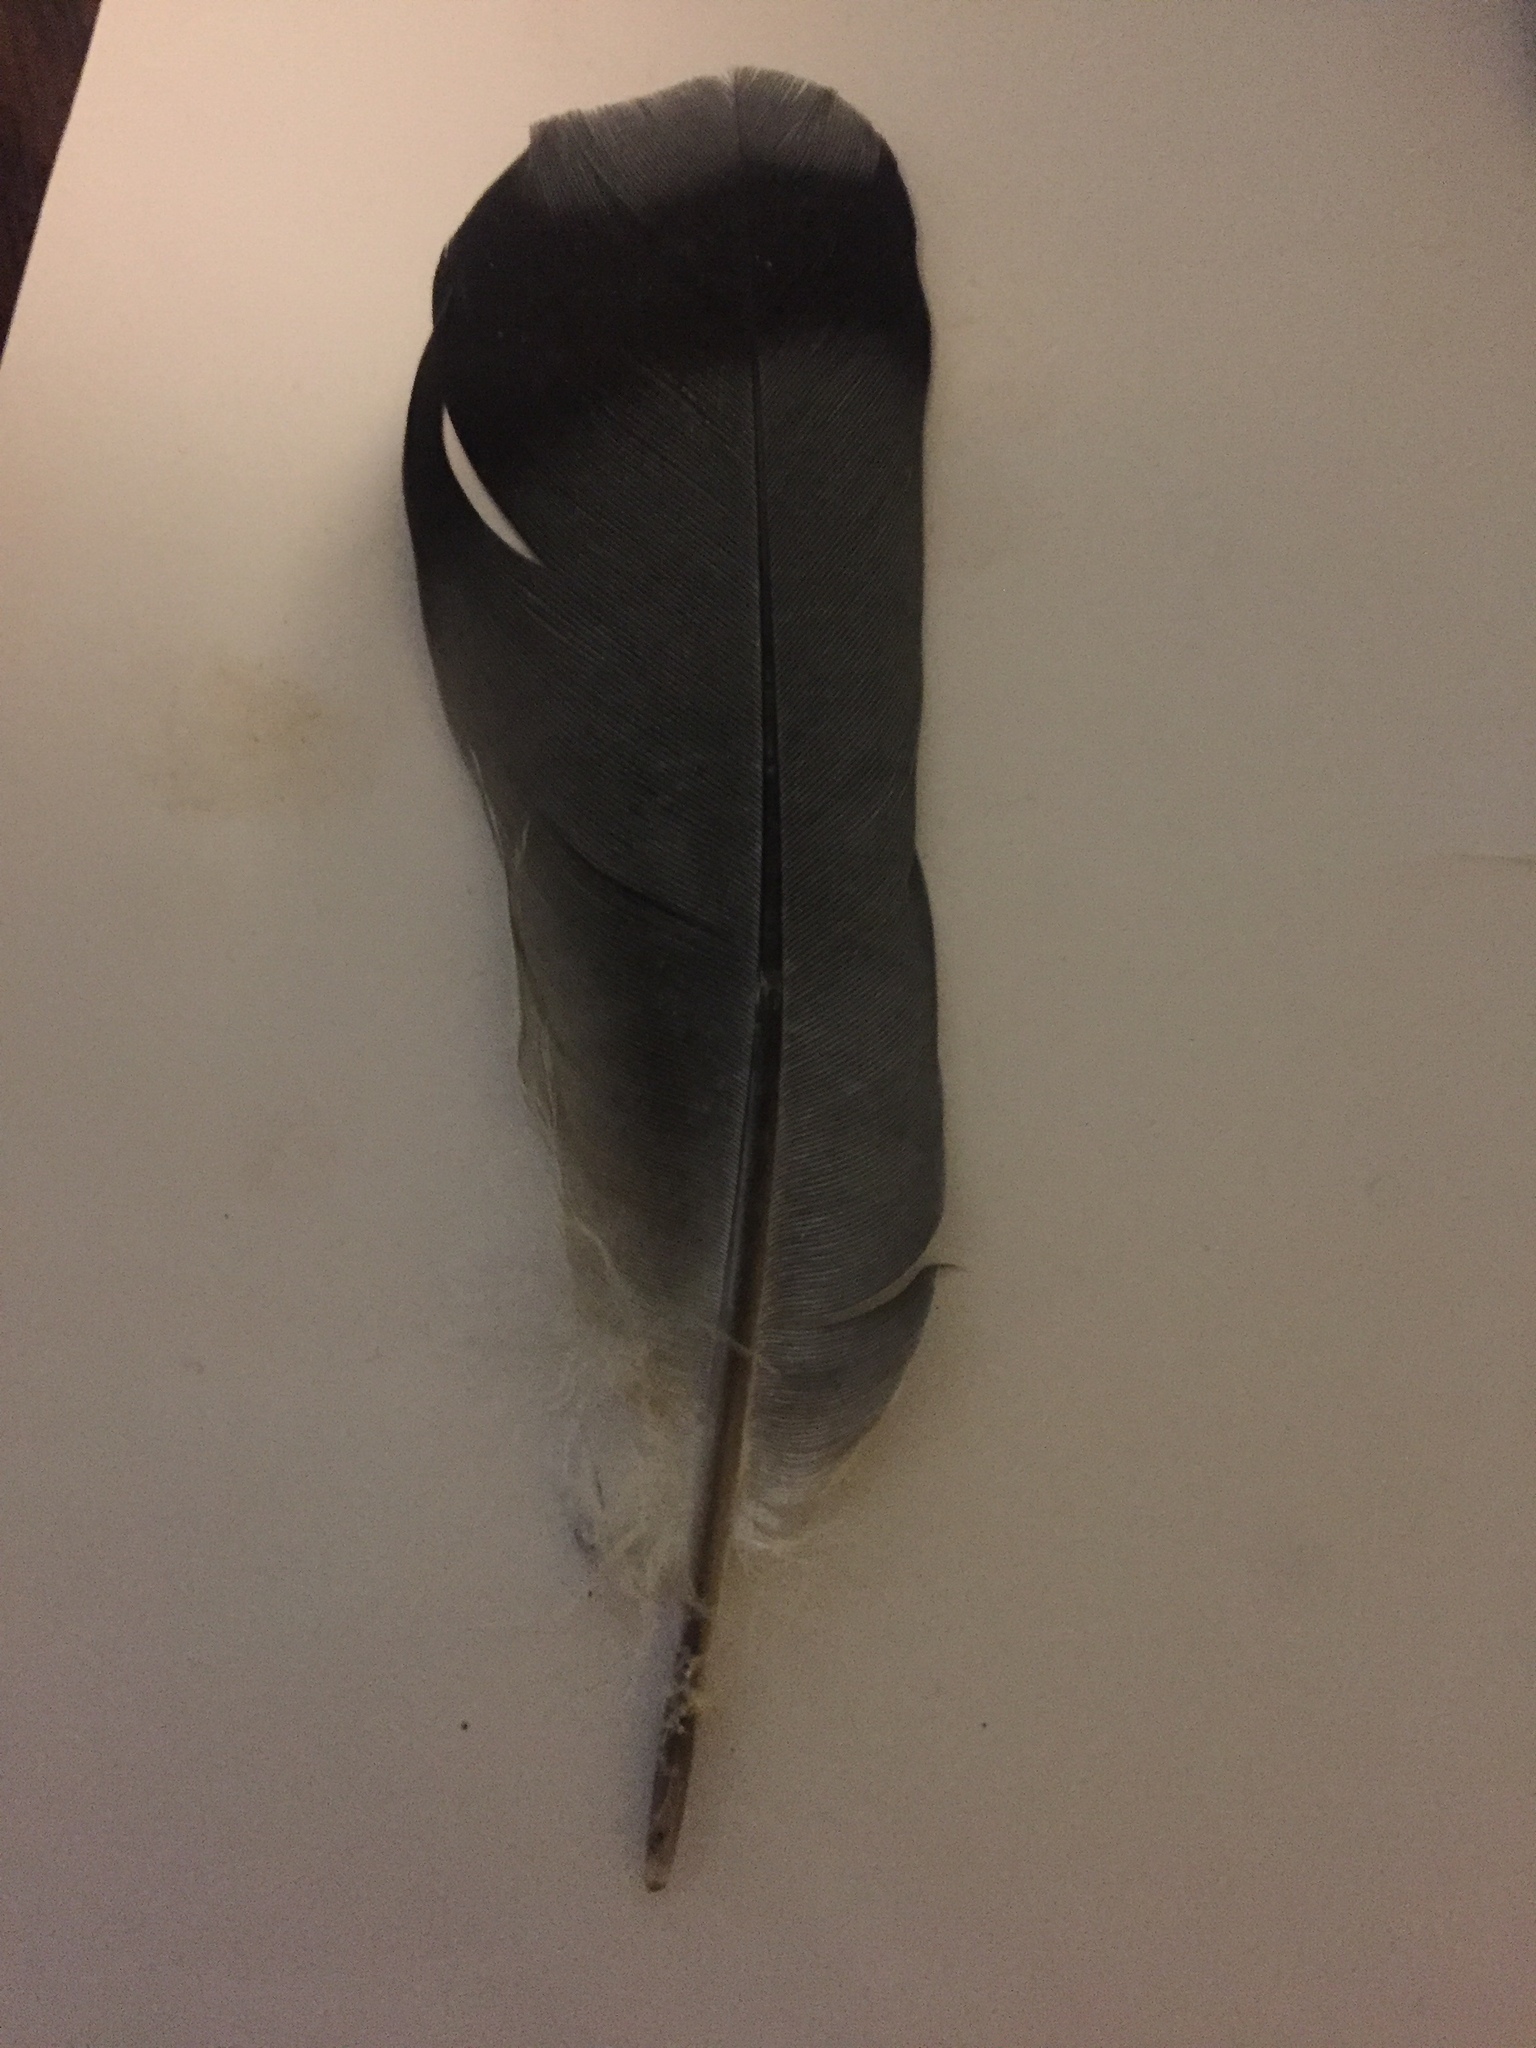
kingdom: Animalia
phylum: Chordata
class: Aves
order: Columbiformes
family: Columbidae
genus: Columba
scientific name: Columba livia
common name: Rock pigeon
